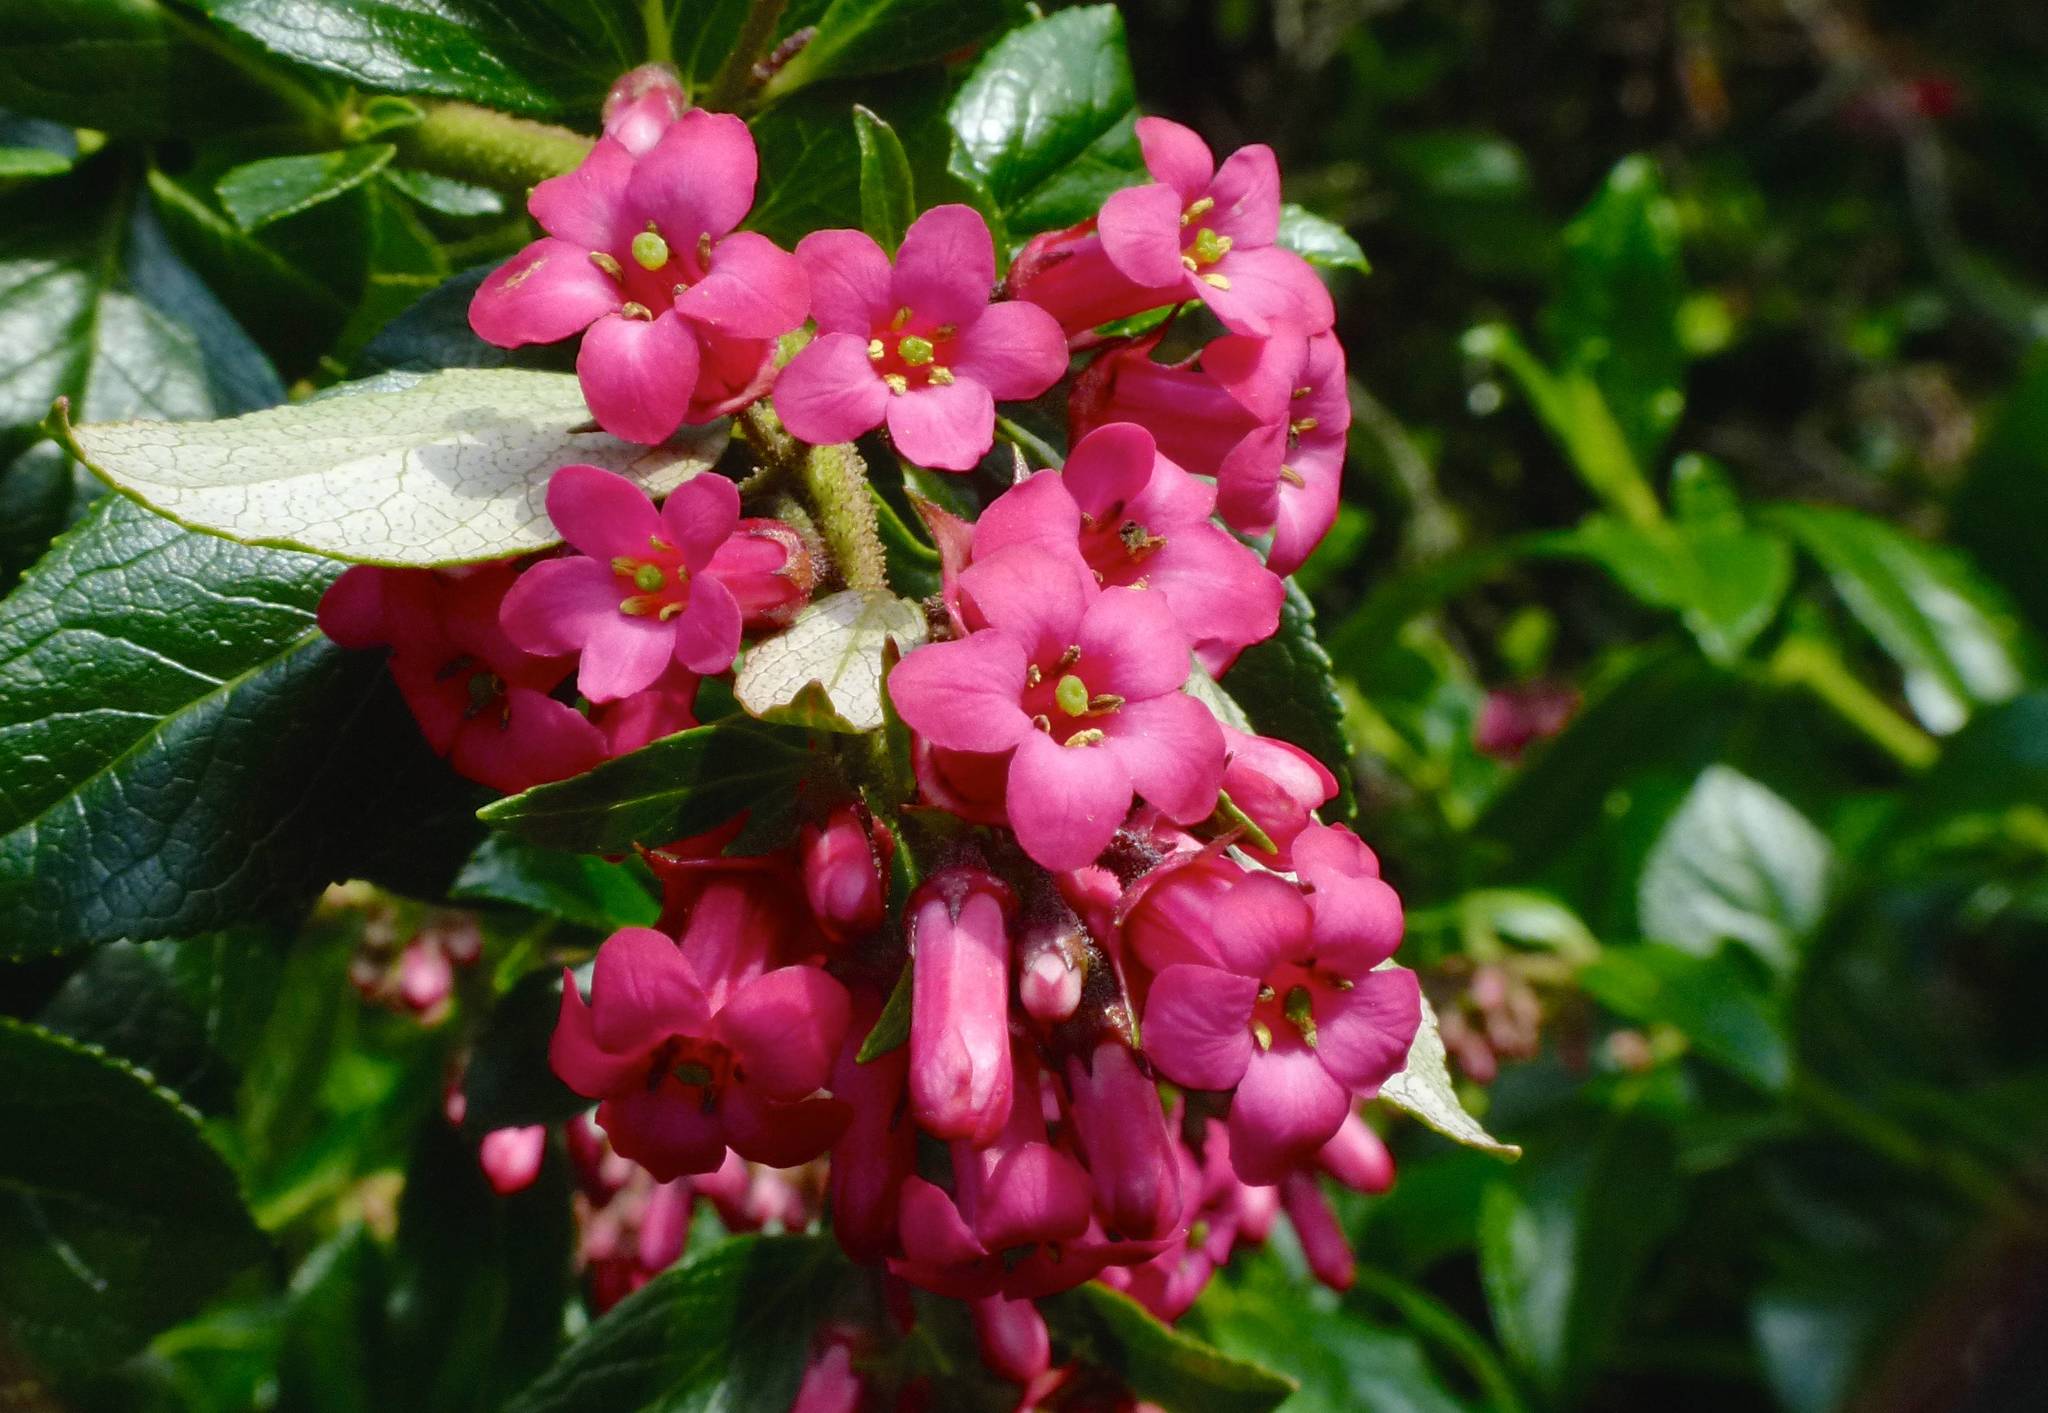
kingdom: Plantae
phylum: Tracheophyta
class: Magnoliopsida
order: Escalloniales
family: Escalloniaceae
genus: Escallonia
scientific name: Escallonia rubra
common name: Redclaws
